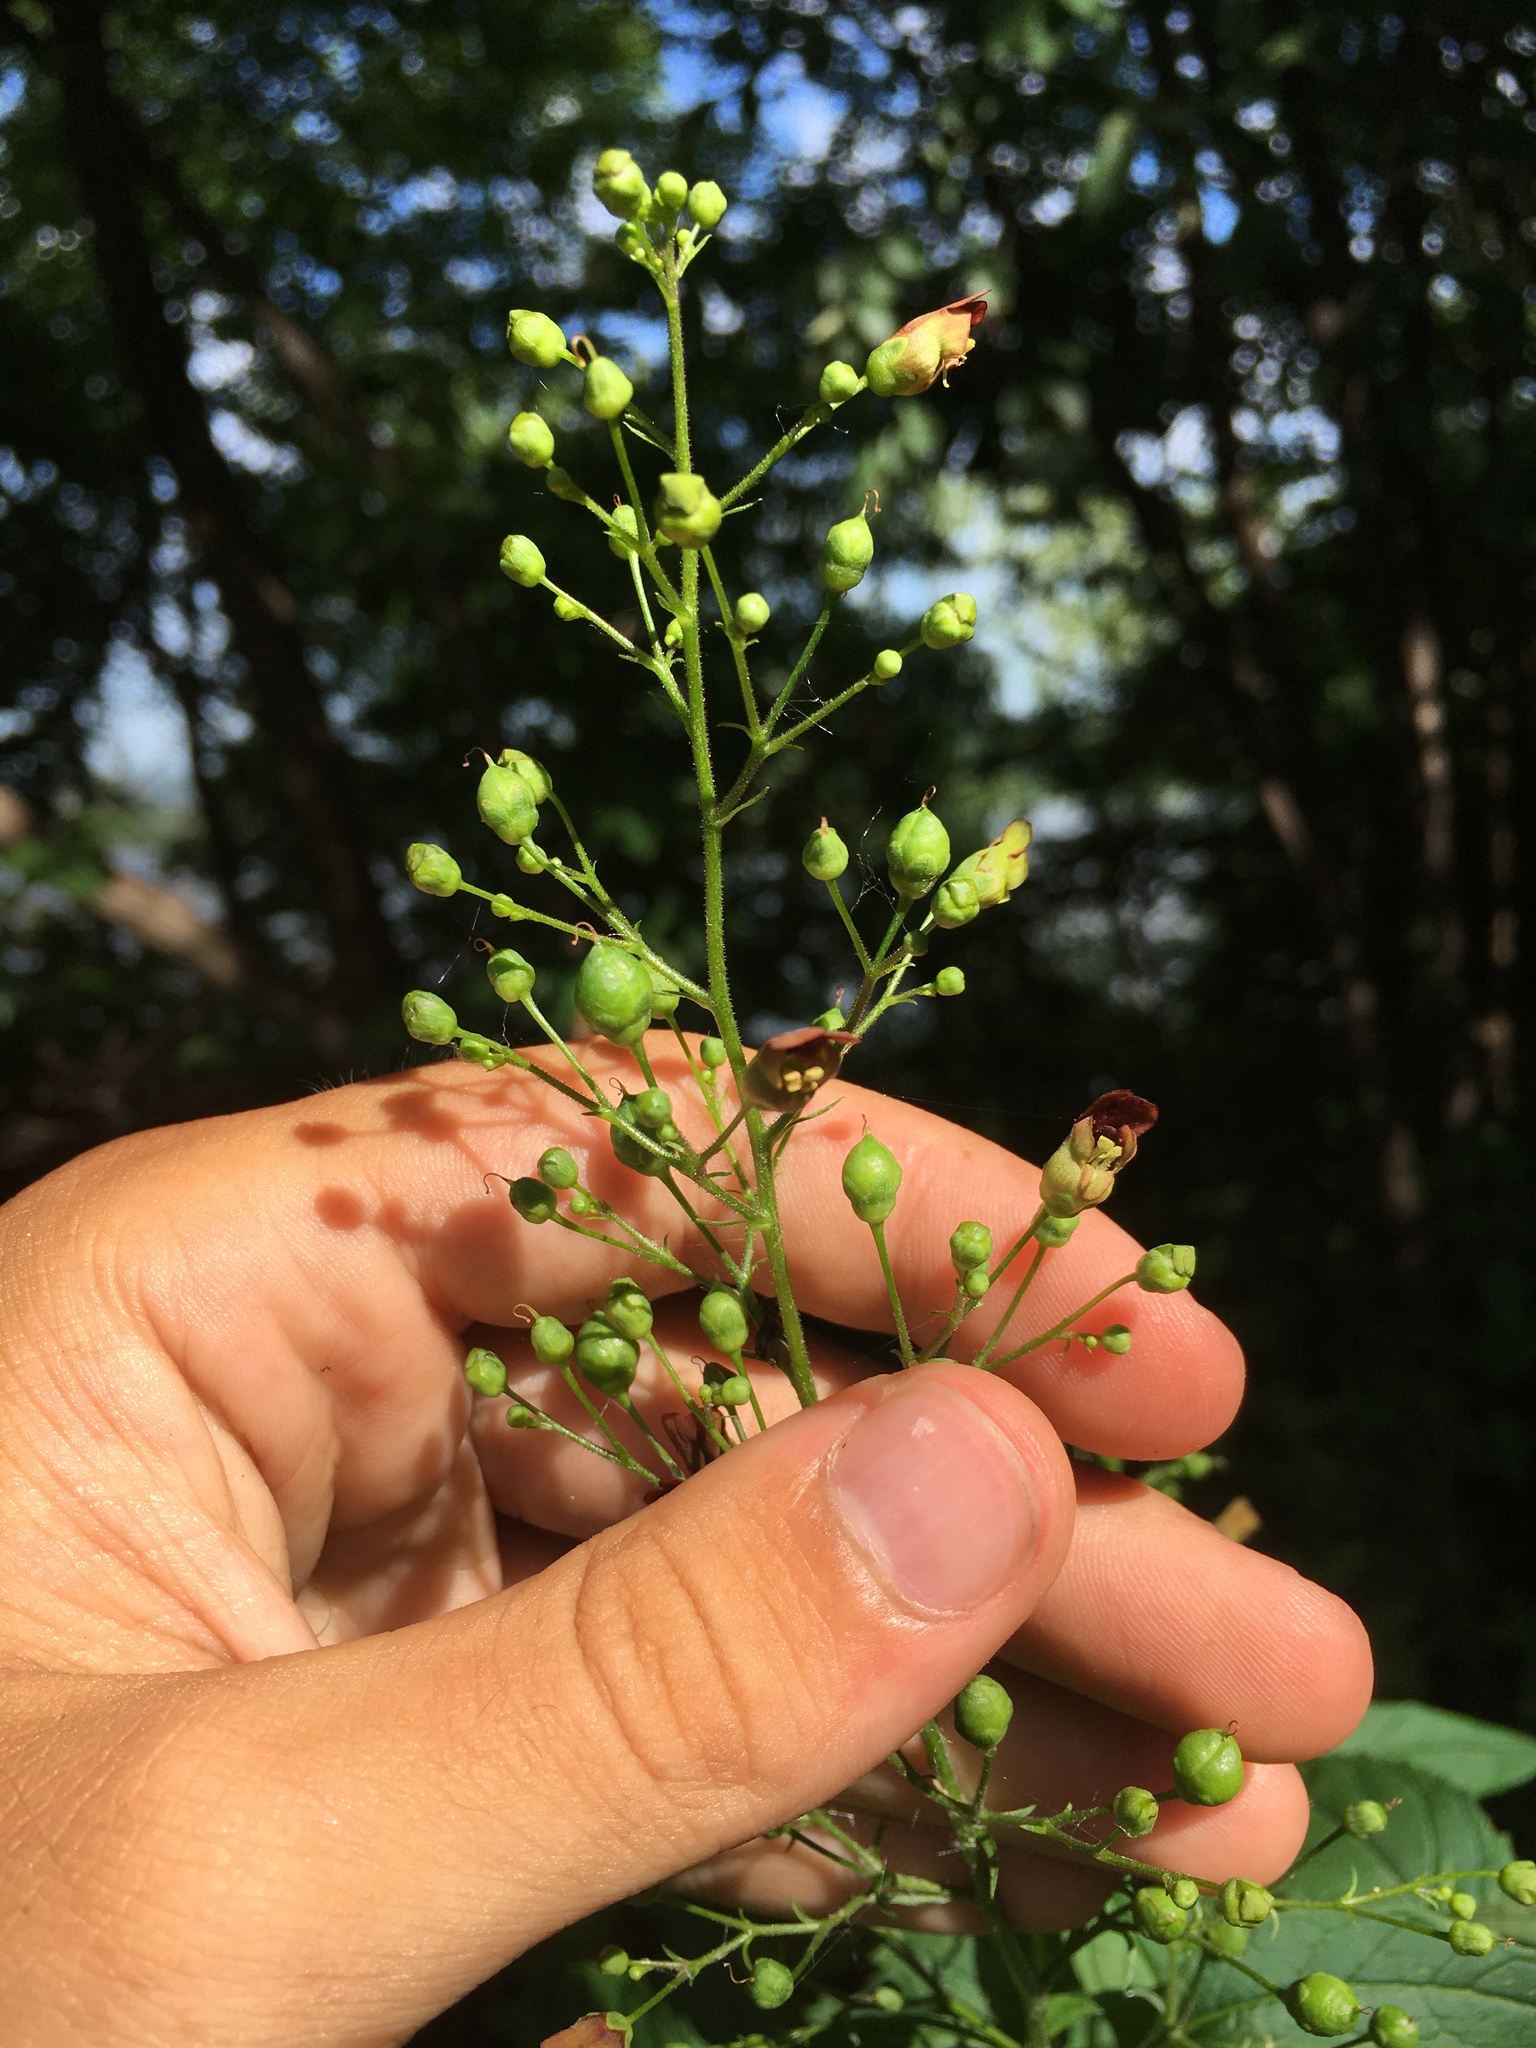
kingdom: Plantae
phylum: Tracheophyta
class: Magnoliopsida
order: Lamiales
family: Scrophulariaceae
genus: Scrophularia
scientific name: Scrophularia marilandica
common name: Eastern figwort
